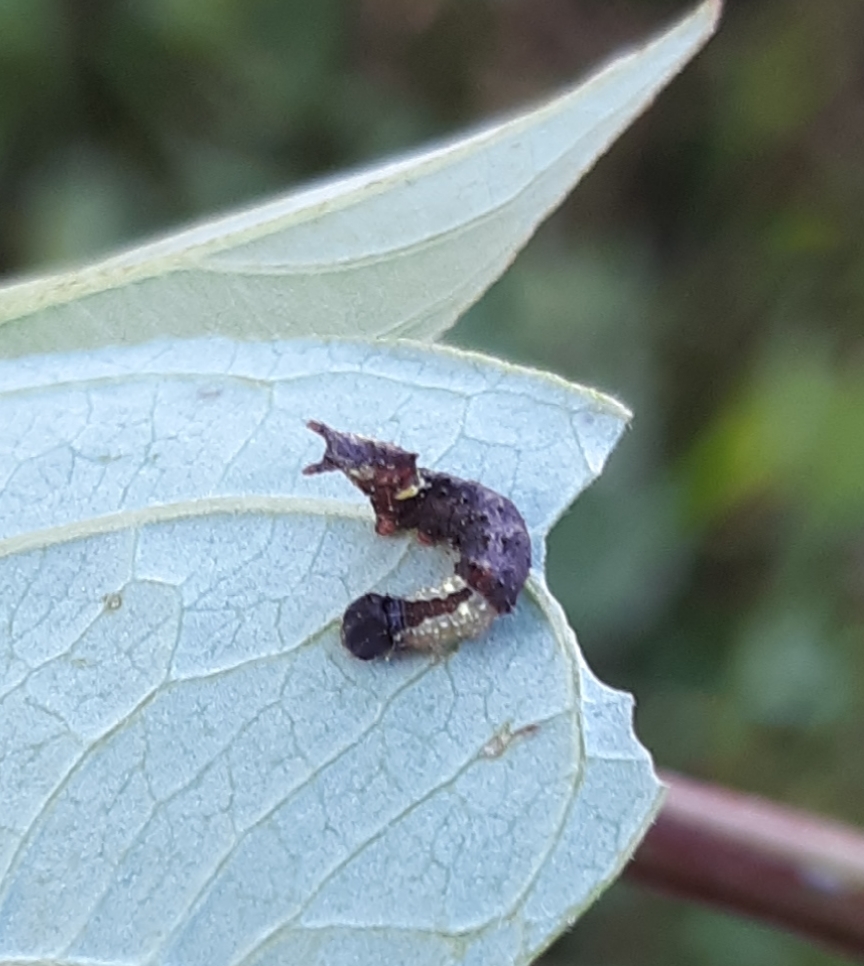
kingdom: Animalia
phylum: Arthropoda
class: Insecta
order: Lepidoptera
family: Notodontidae
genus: Schizura
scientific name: Schizura
